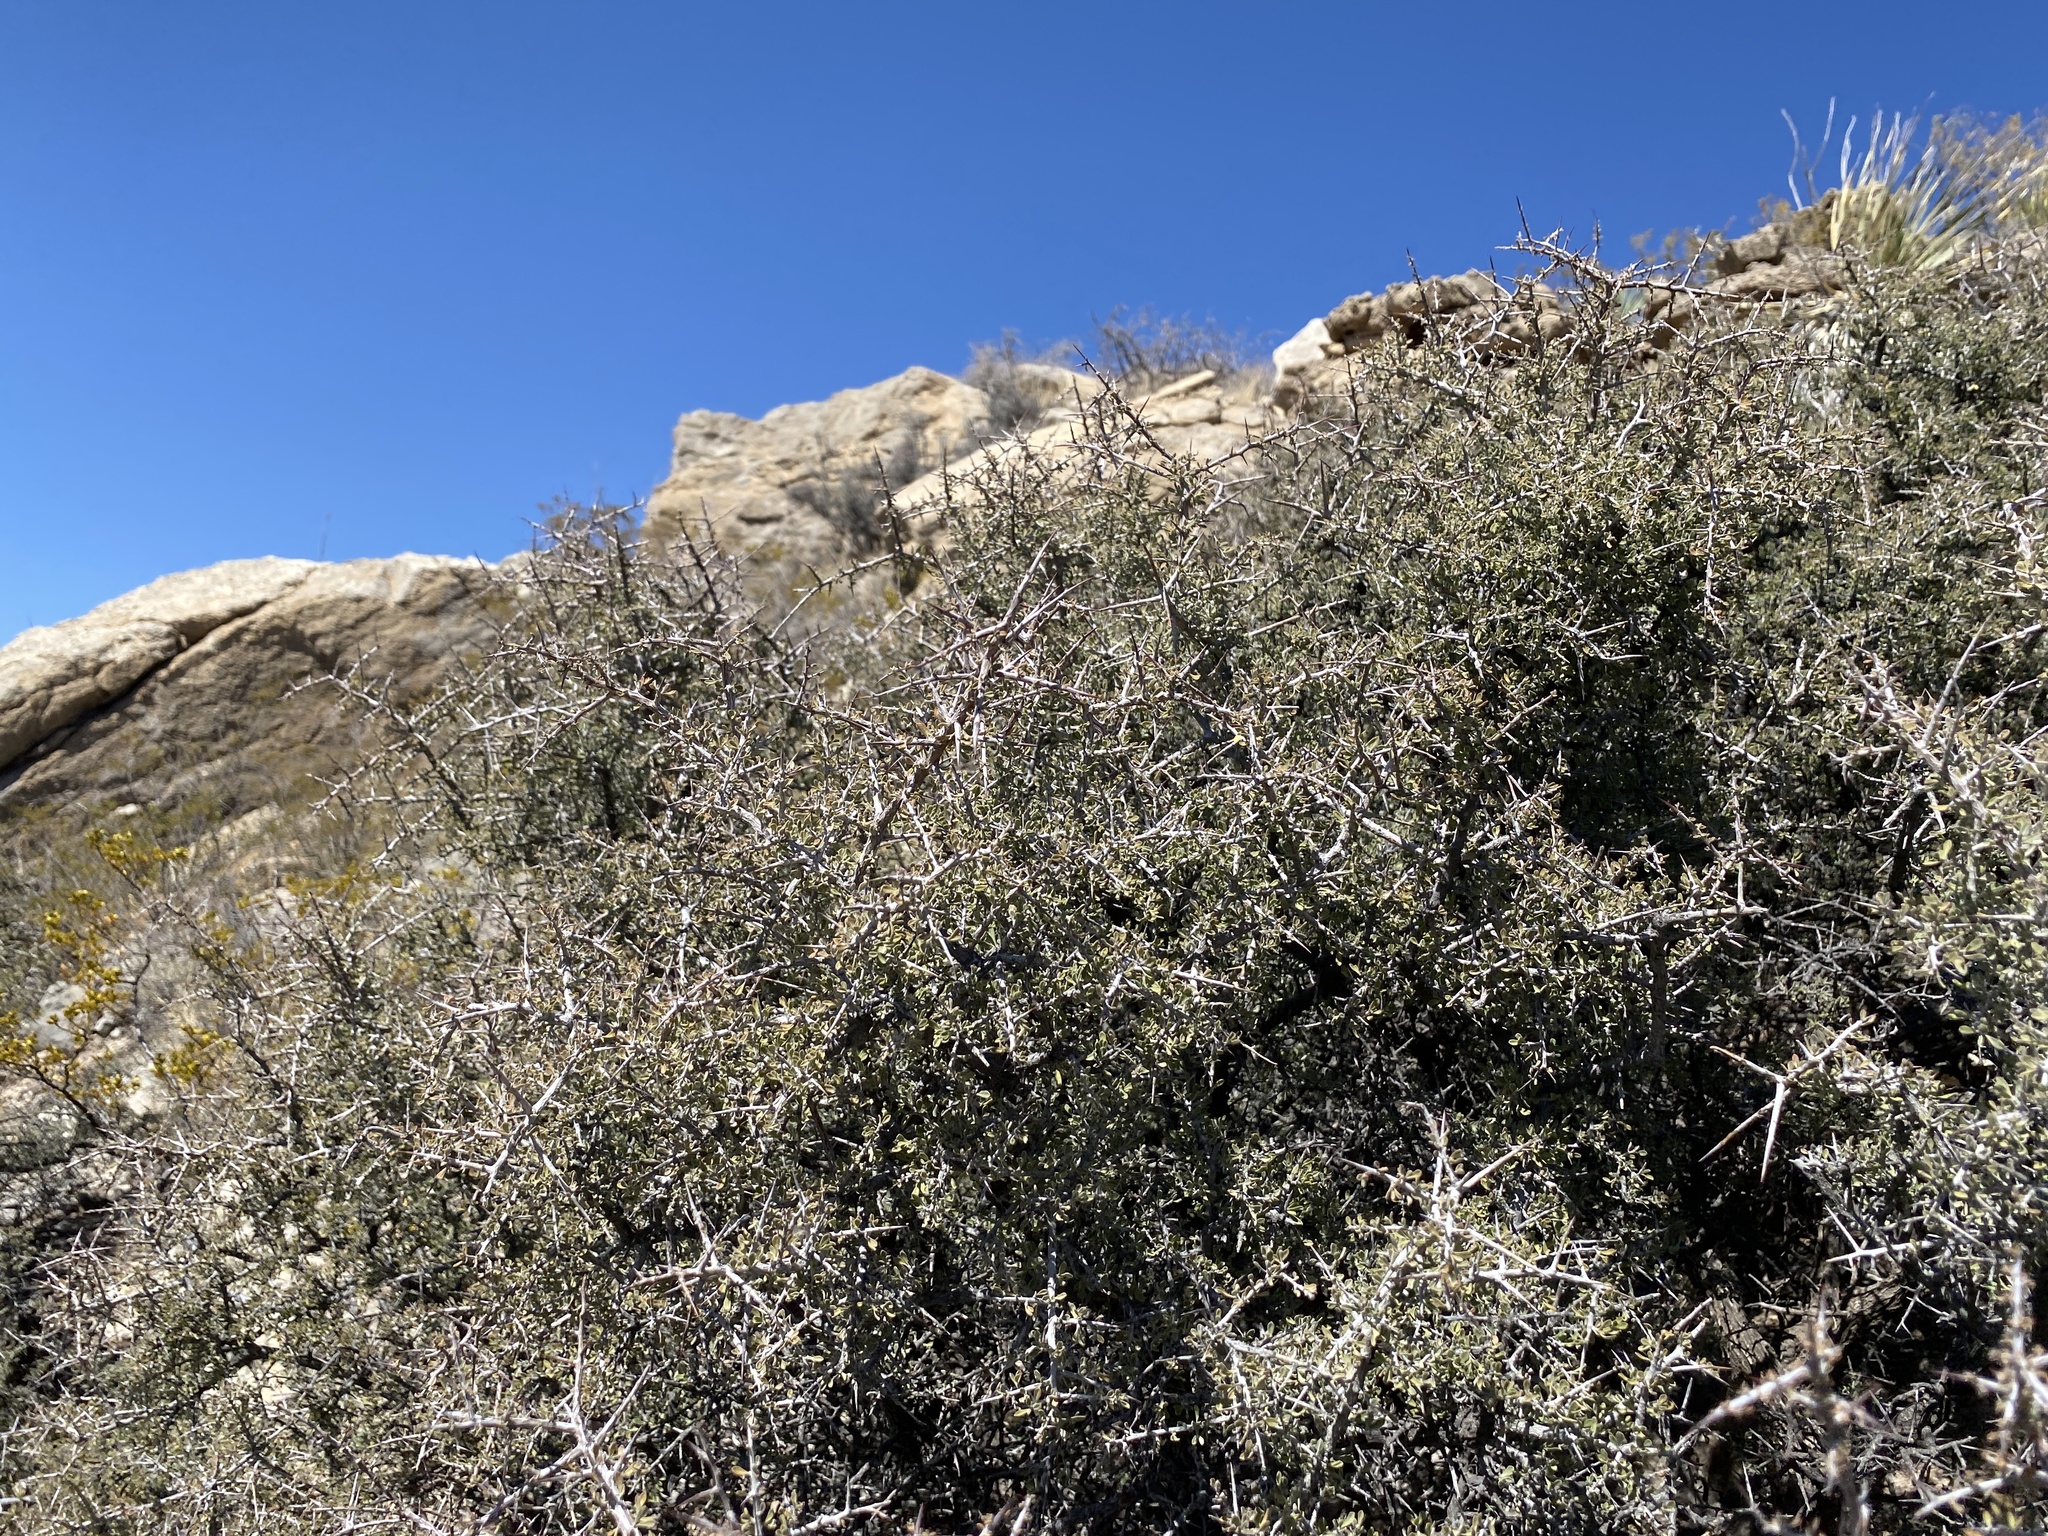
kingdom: Plantae
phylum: Tracheophyta
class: Magnoliopsida
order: Rosales
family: Rhamnaceae
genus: Condalia
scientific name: Condalia warnockii
